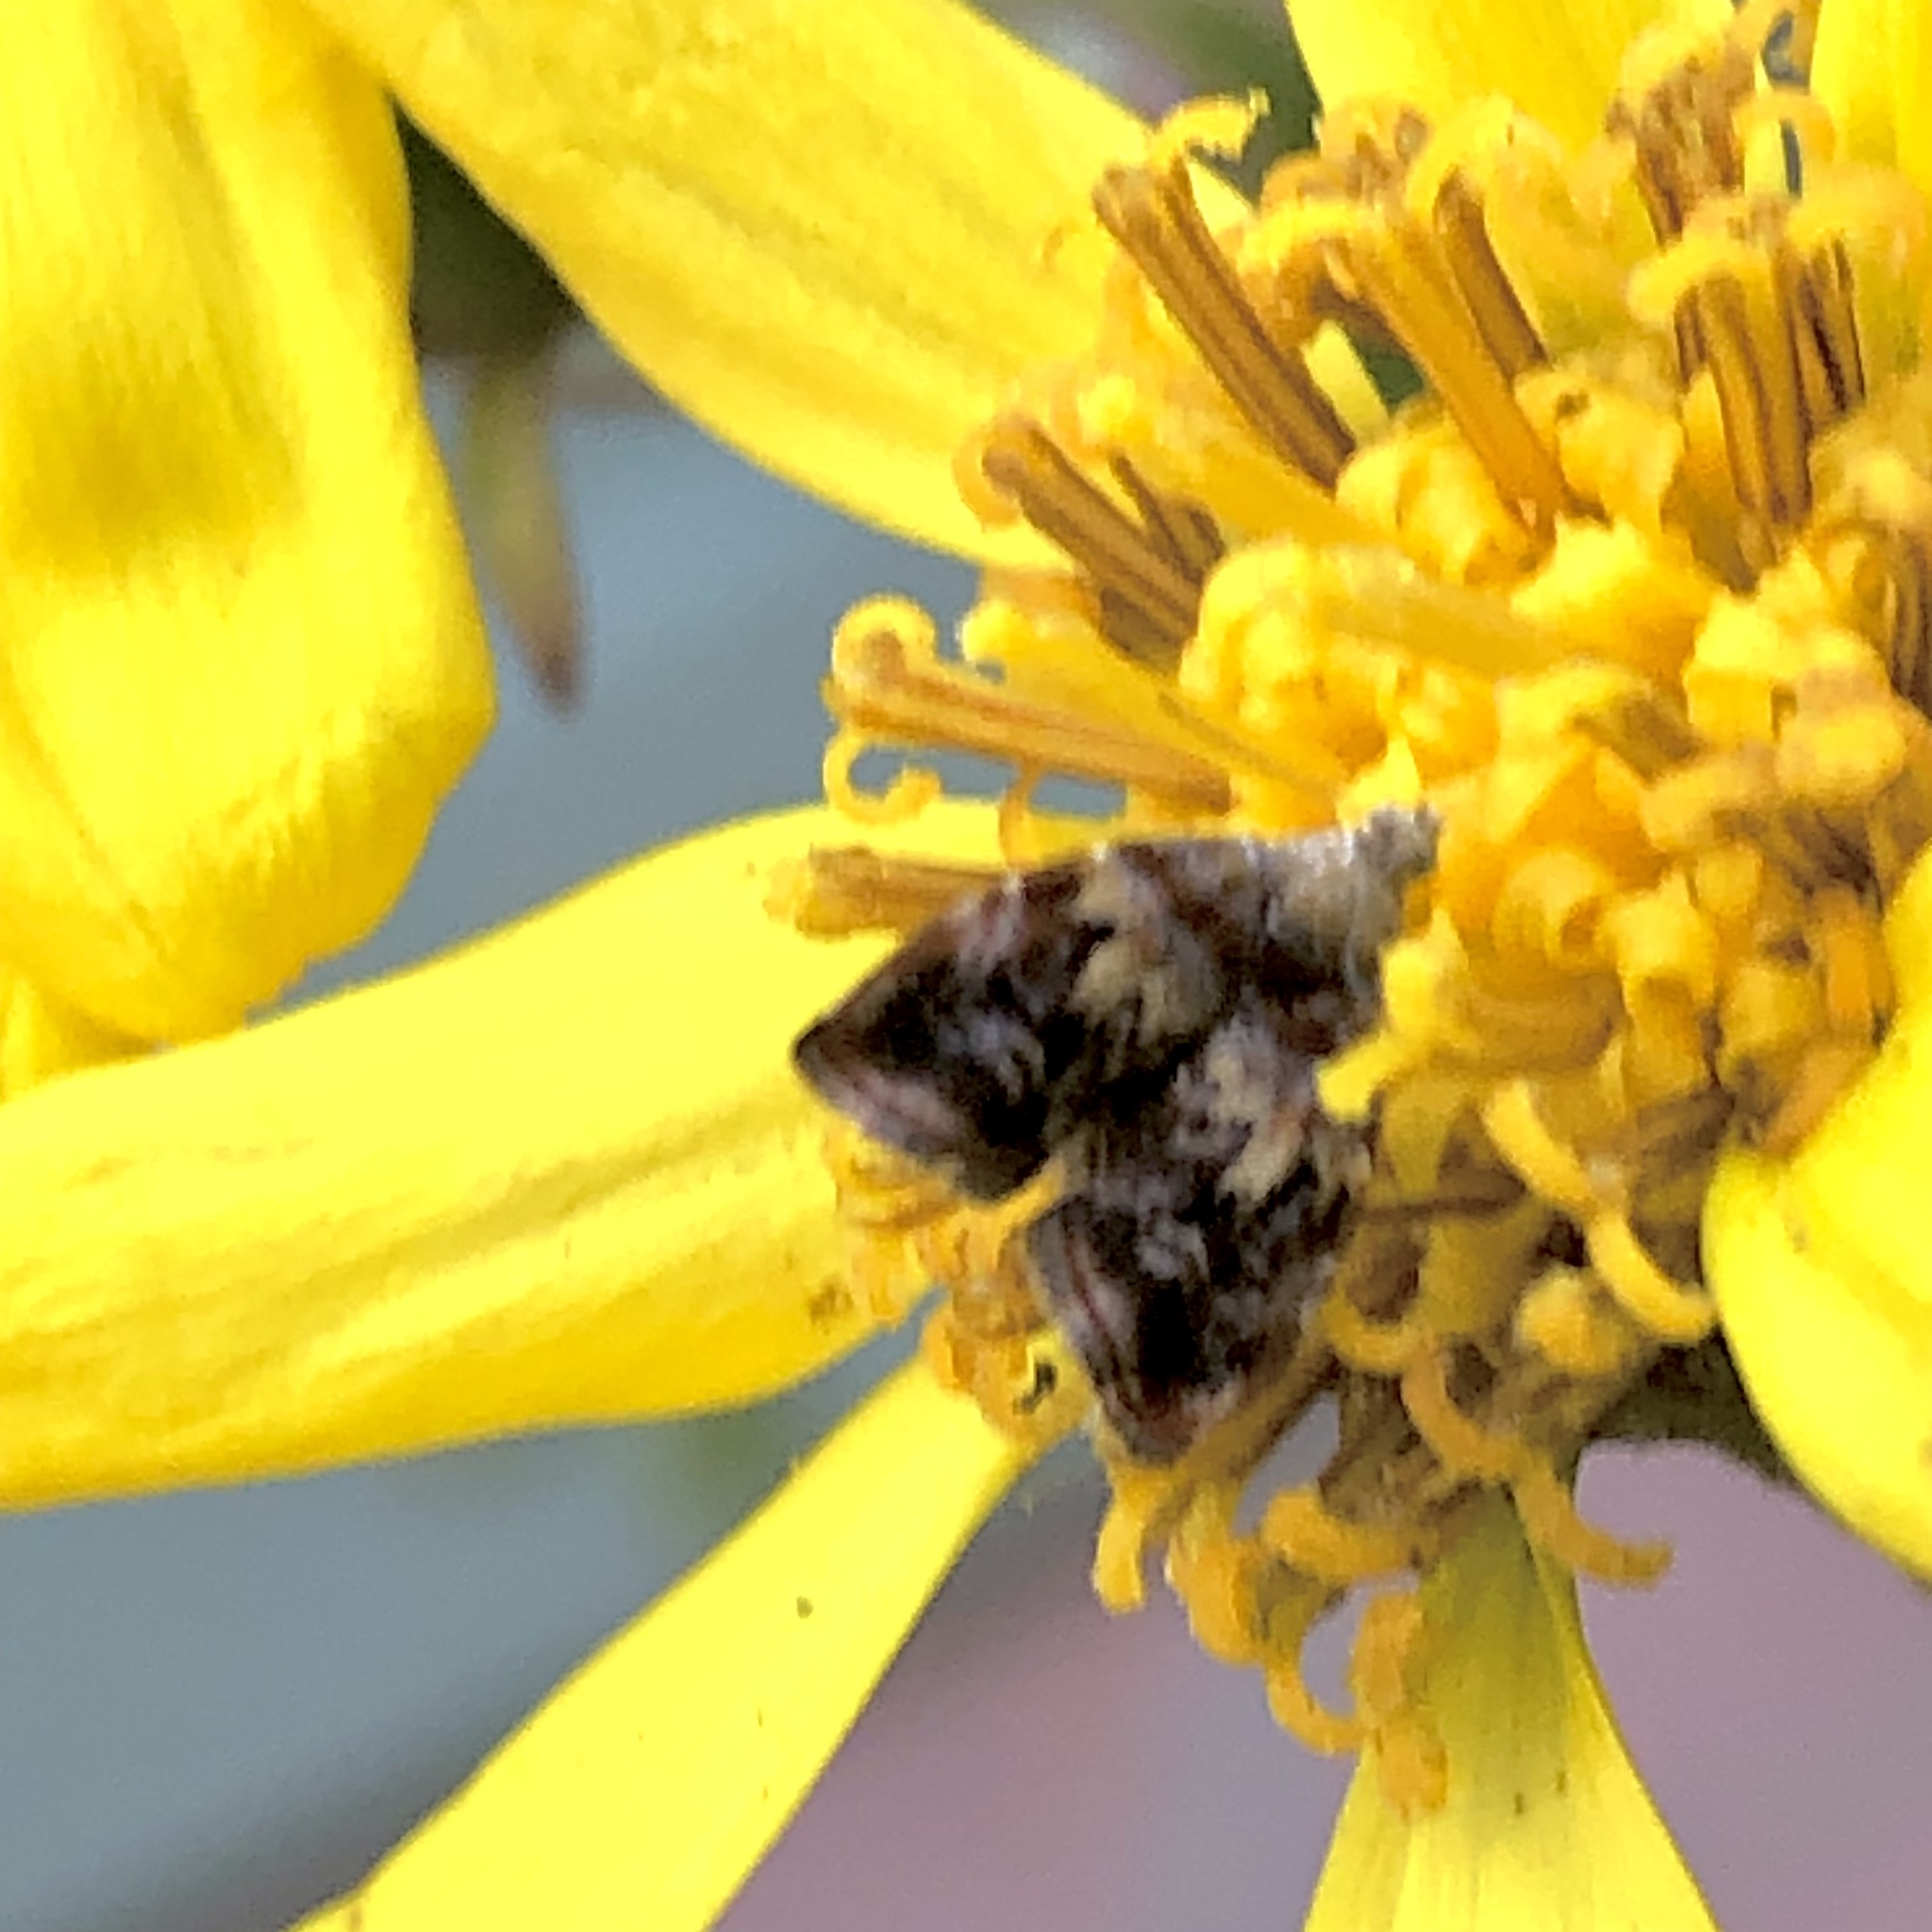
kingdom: Animalia
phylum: Arthropoda
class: Insecta
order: Lepidoptera
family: Choreutidae
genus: Choreutis
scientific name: Choreutis sexfasciella
